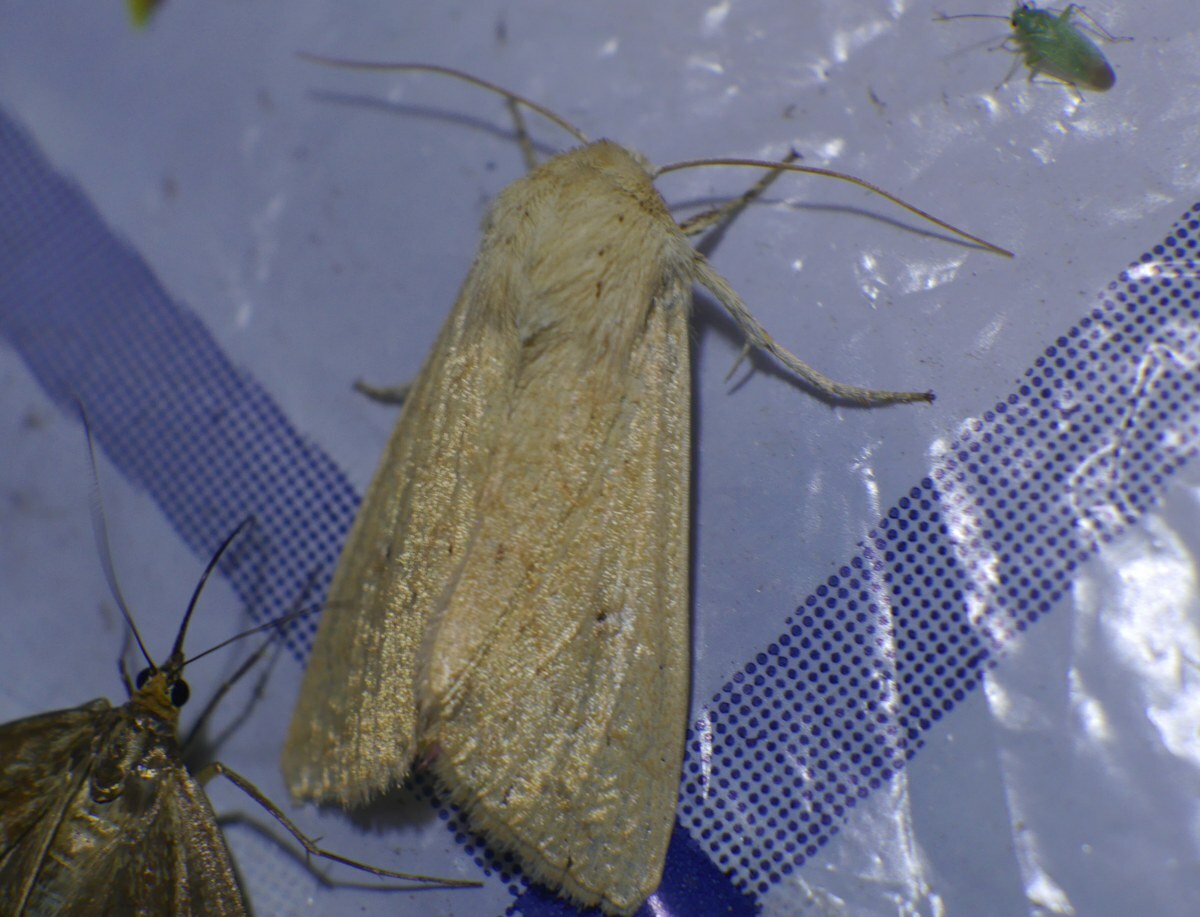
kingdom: Animalia
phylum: Arthropoda
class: Insecta
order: Lepidoptera
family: Noctuidae
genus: Mythimna
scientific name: Mythimna vitellina
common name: Delicate
